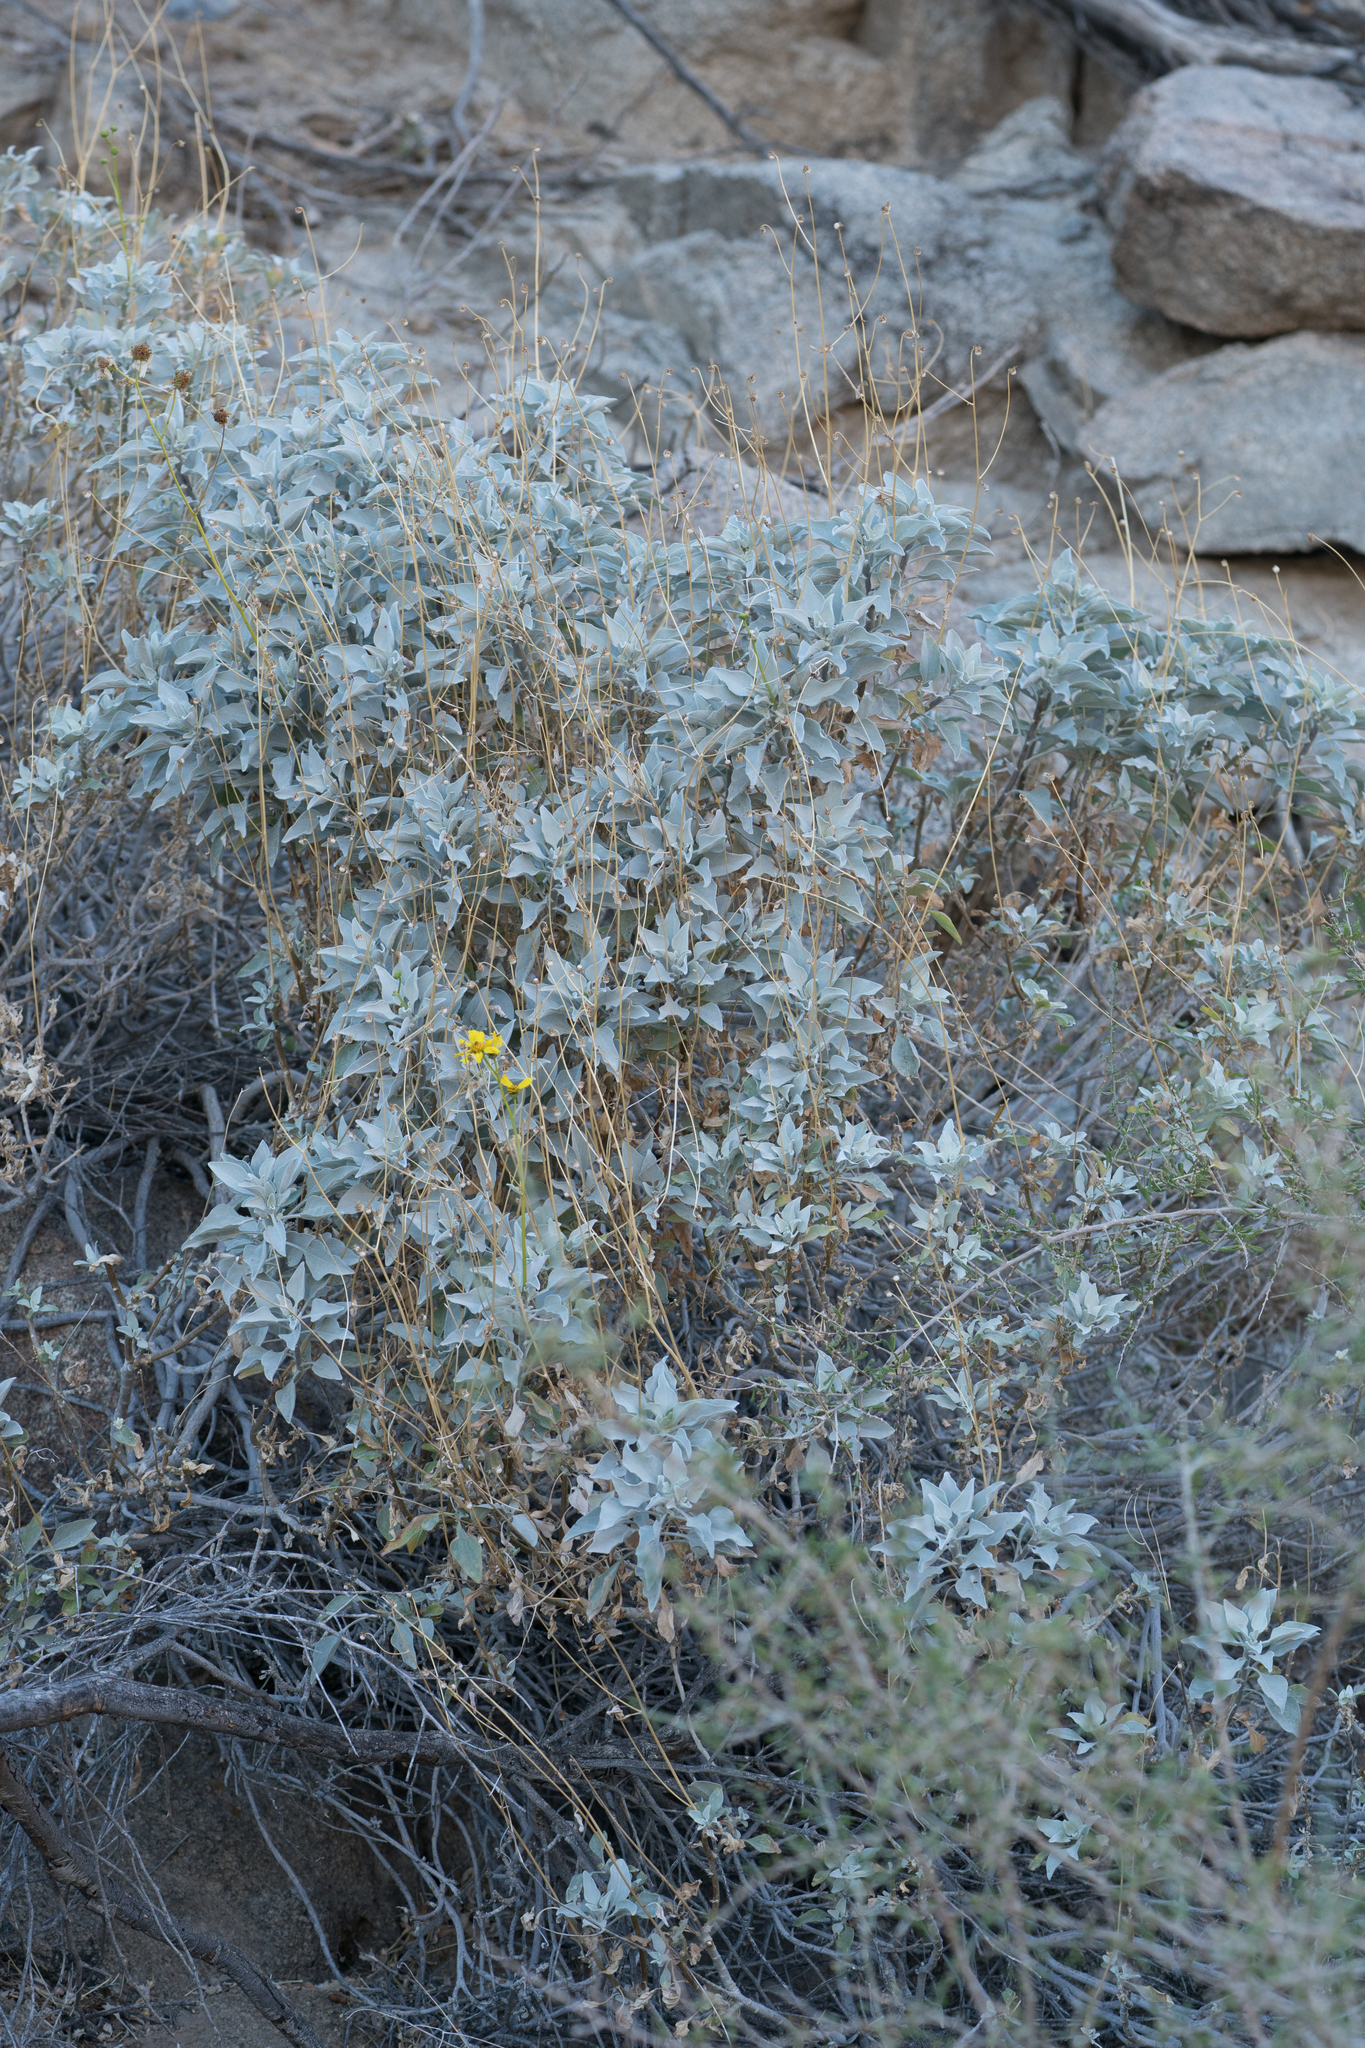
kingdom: Plantae
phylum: Tracheophyta
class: Magnoliopsida
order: Asterales
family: Asteraceae
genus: Encelia
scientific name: Encelia farinosa
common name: Brittlebush
